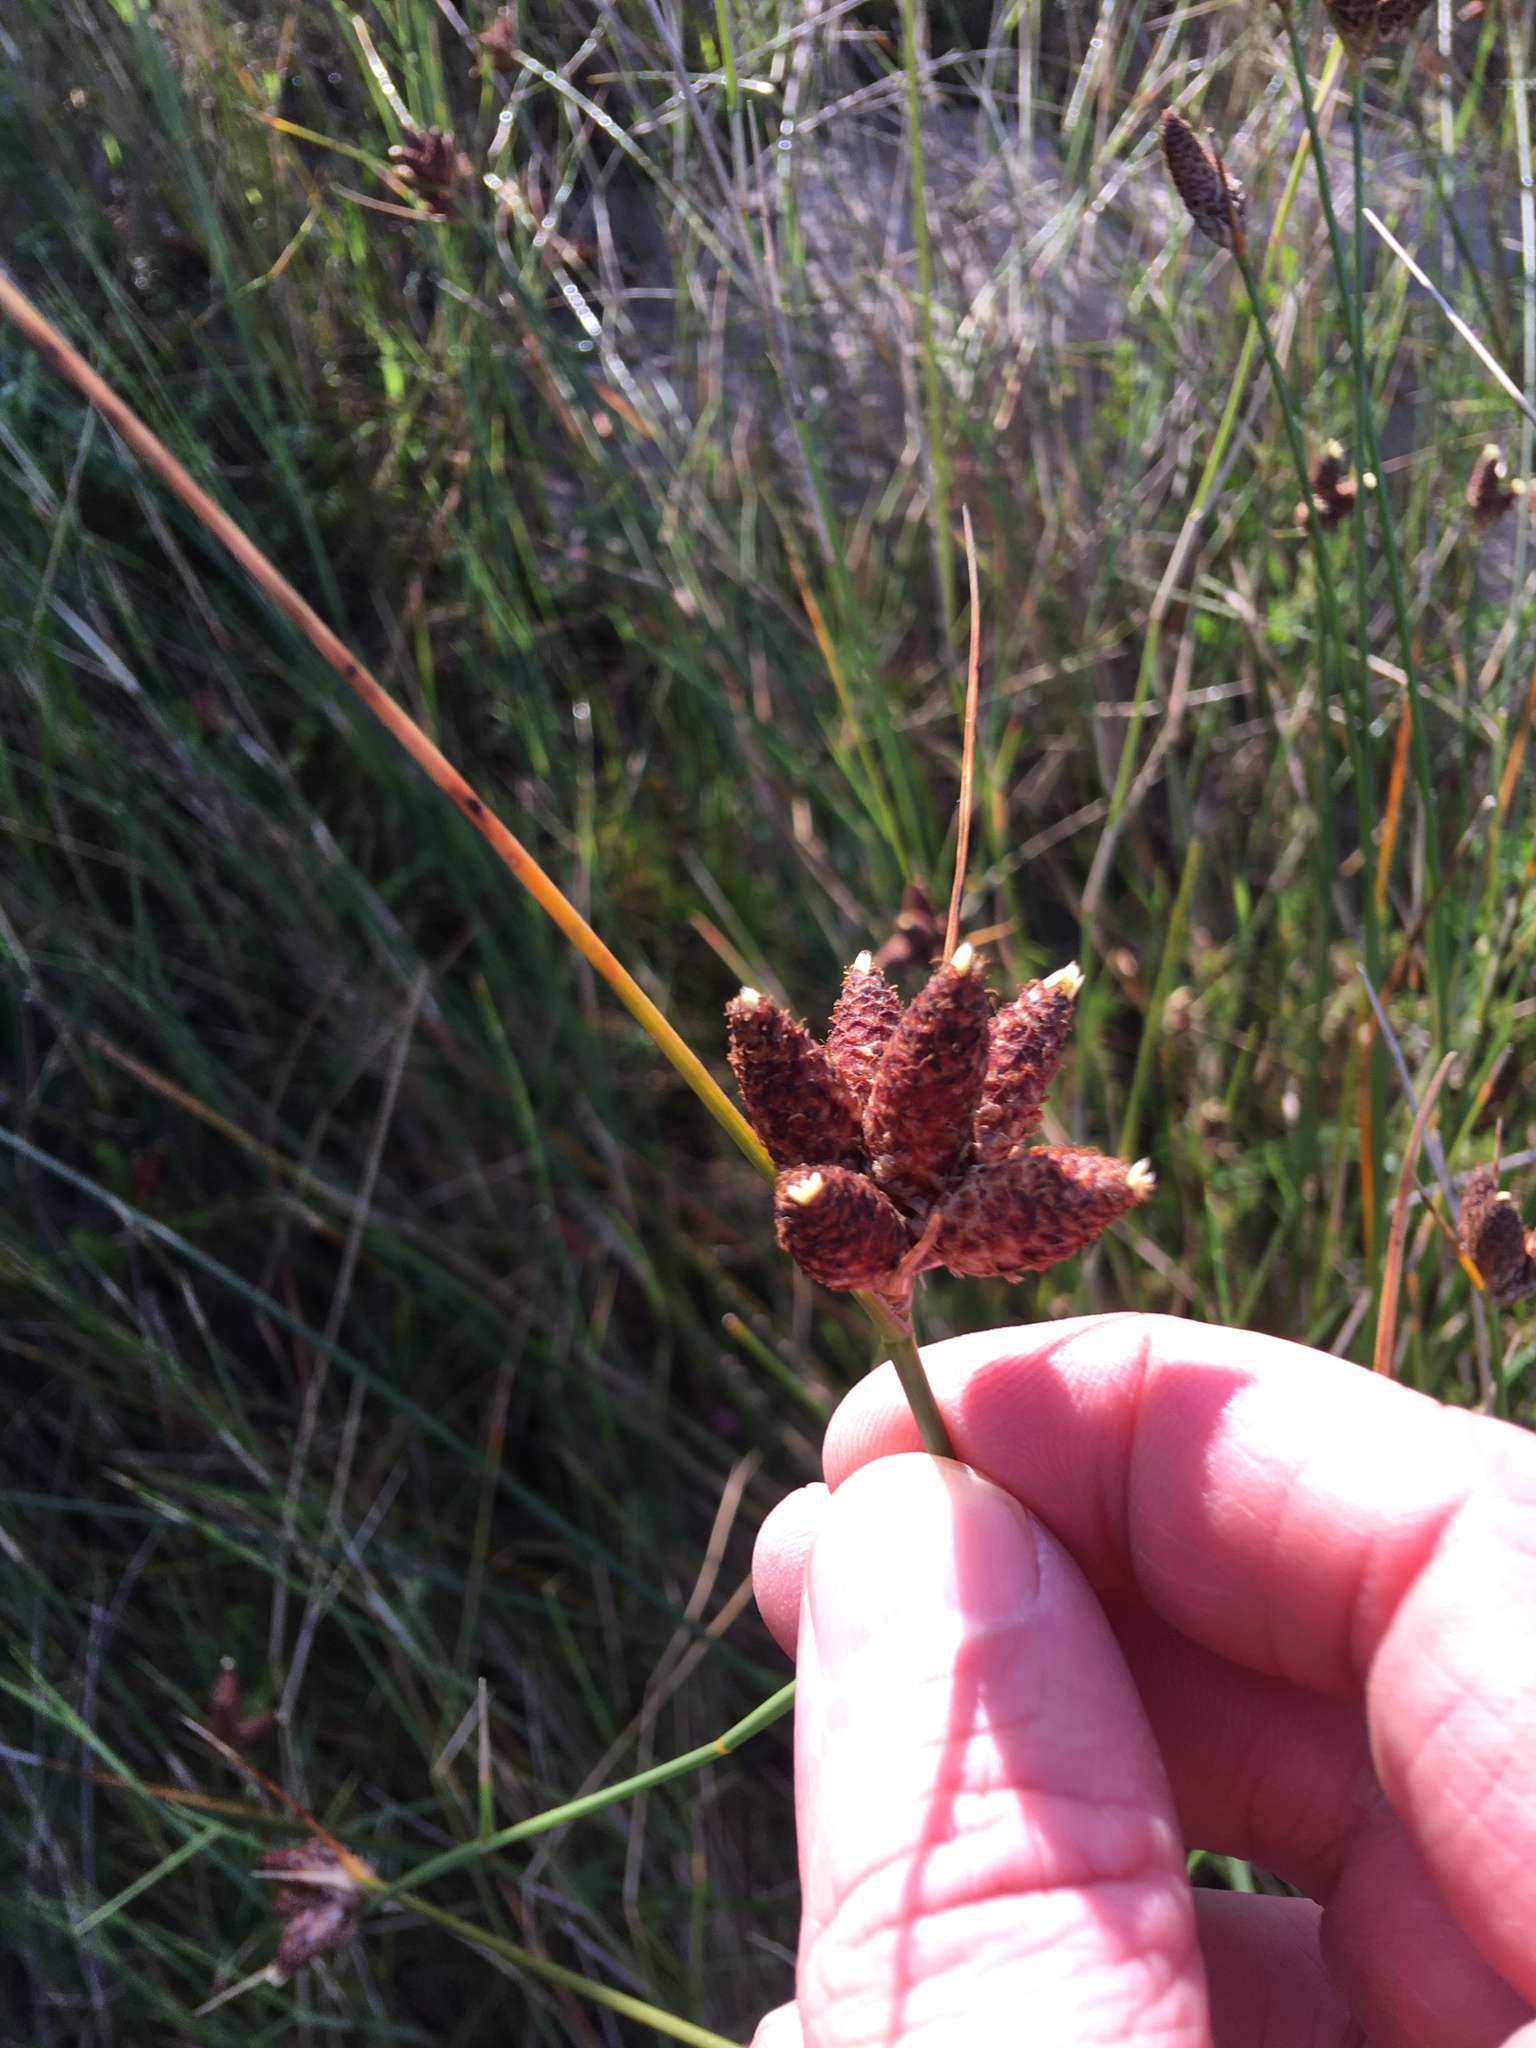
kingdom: Plantae
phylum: Tracheophyta
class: Liliopsida
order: Poales
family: Cyperaceae
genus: Hellmuthia
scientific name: Hellmuthia membranacea
